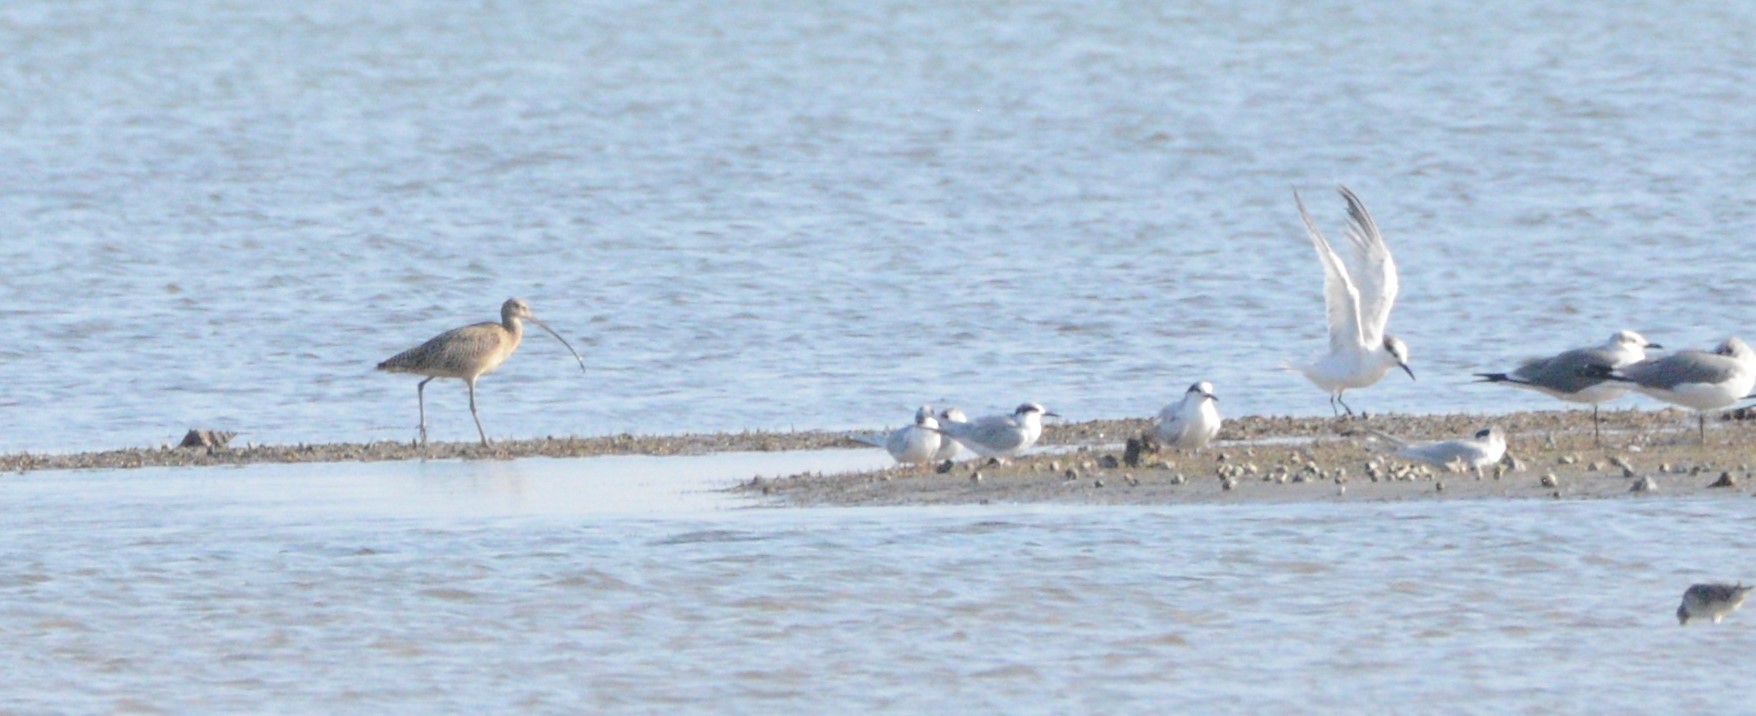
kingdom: Animalia
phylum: Chordata
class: Aves
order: Charadriiformes
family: Laridae
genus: Sterna
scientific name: Sterna forsteri
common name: Forster's tern
